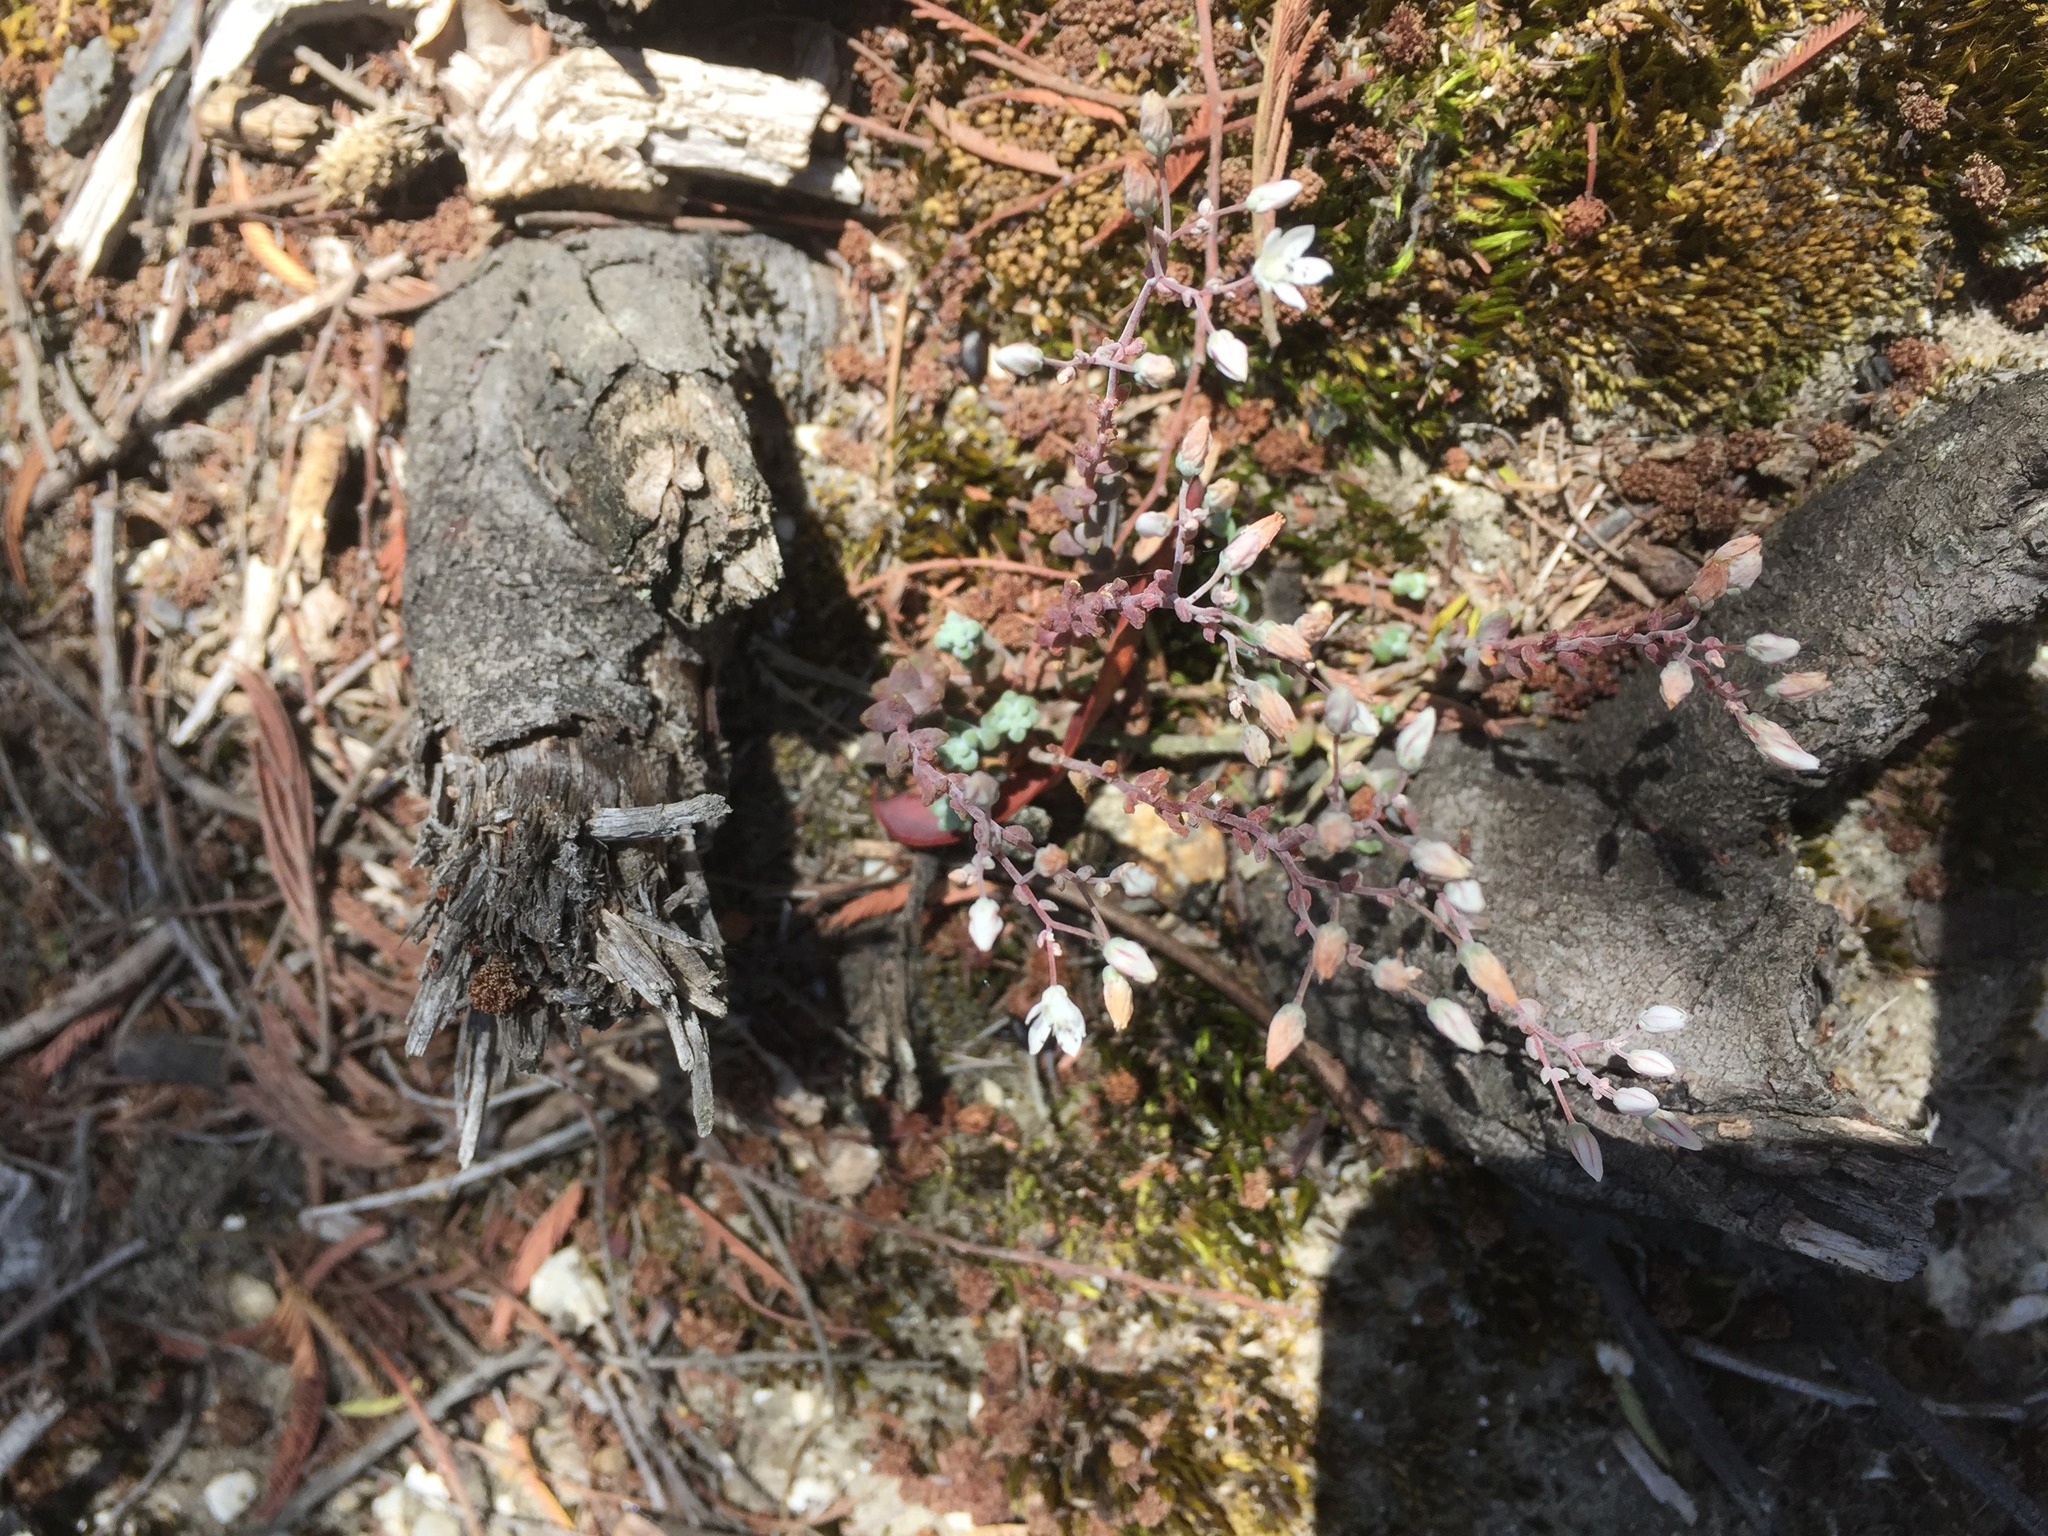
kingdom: Plantae
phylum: Tracheophyta
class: Magnoliopsida
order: Saxifragales
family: Crassulaceae
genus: Sedum
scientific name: Sedum brevifolium
